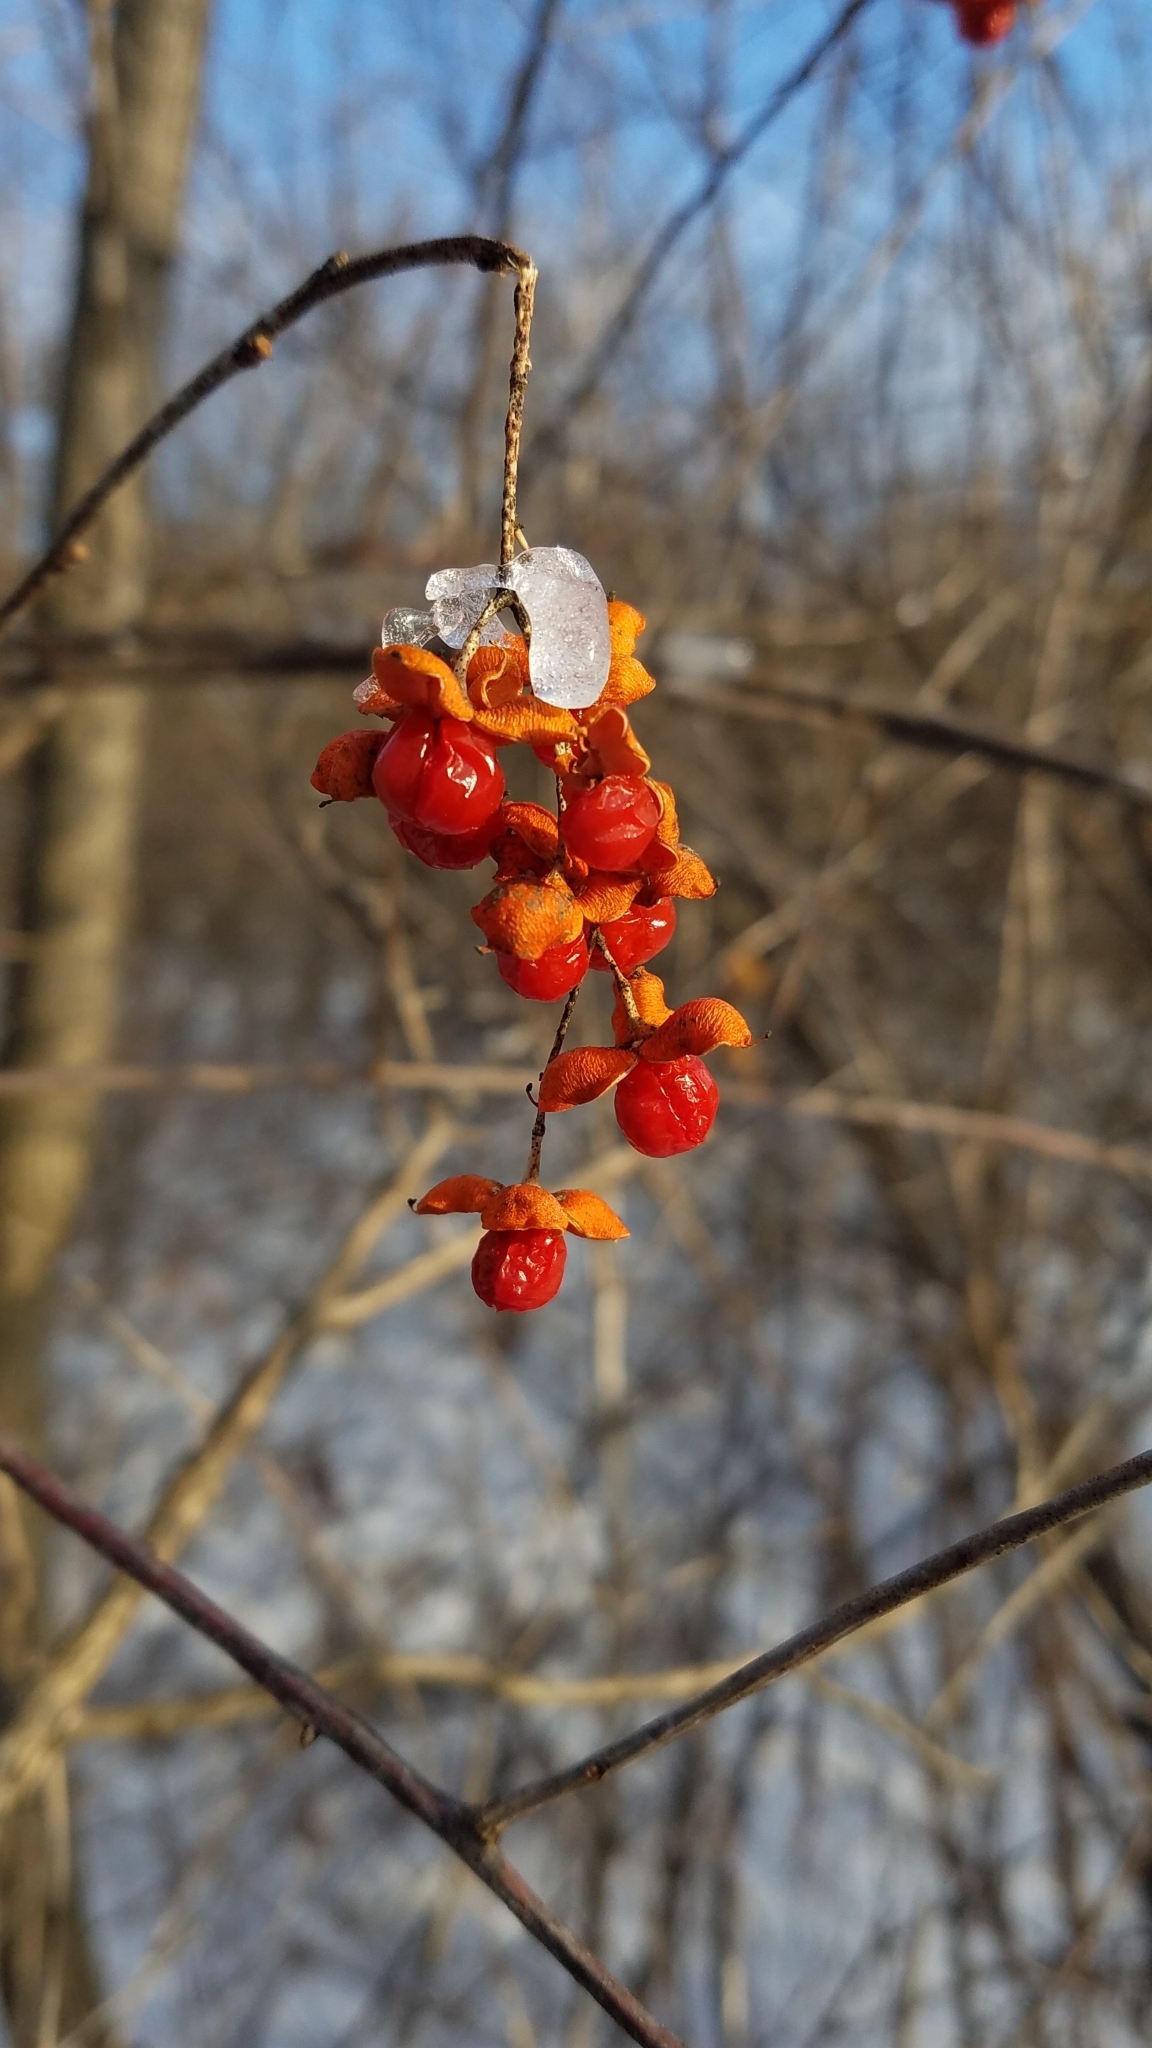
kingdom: Plantae
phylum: Tracheophyta
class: Magnoliopsida
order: Celastrales
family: Celastraceae
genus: Celastrus
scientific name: Celastrus scandens
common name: American bittersweet
